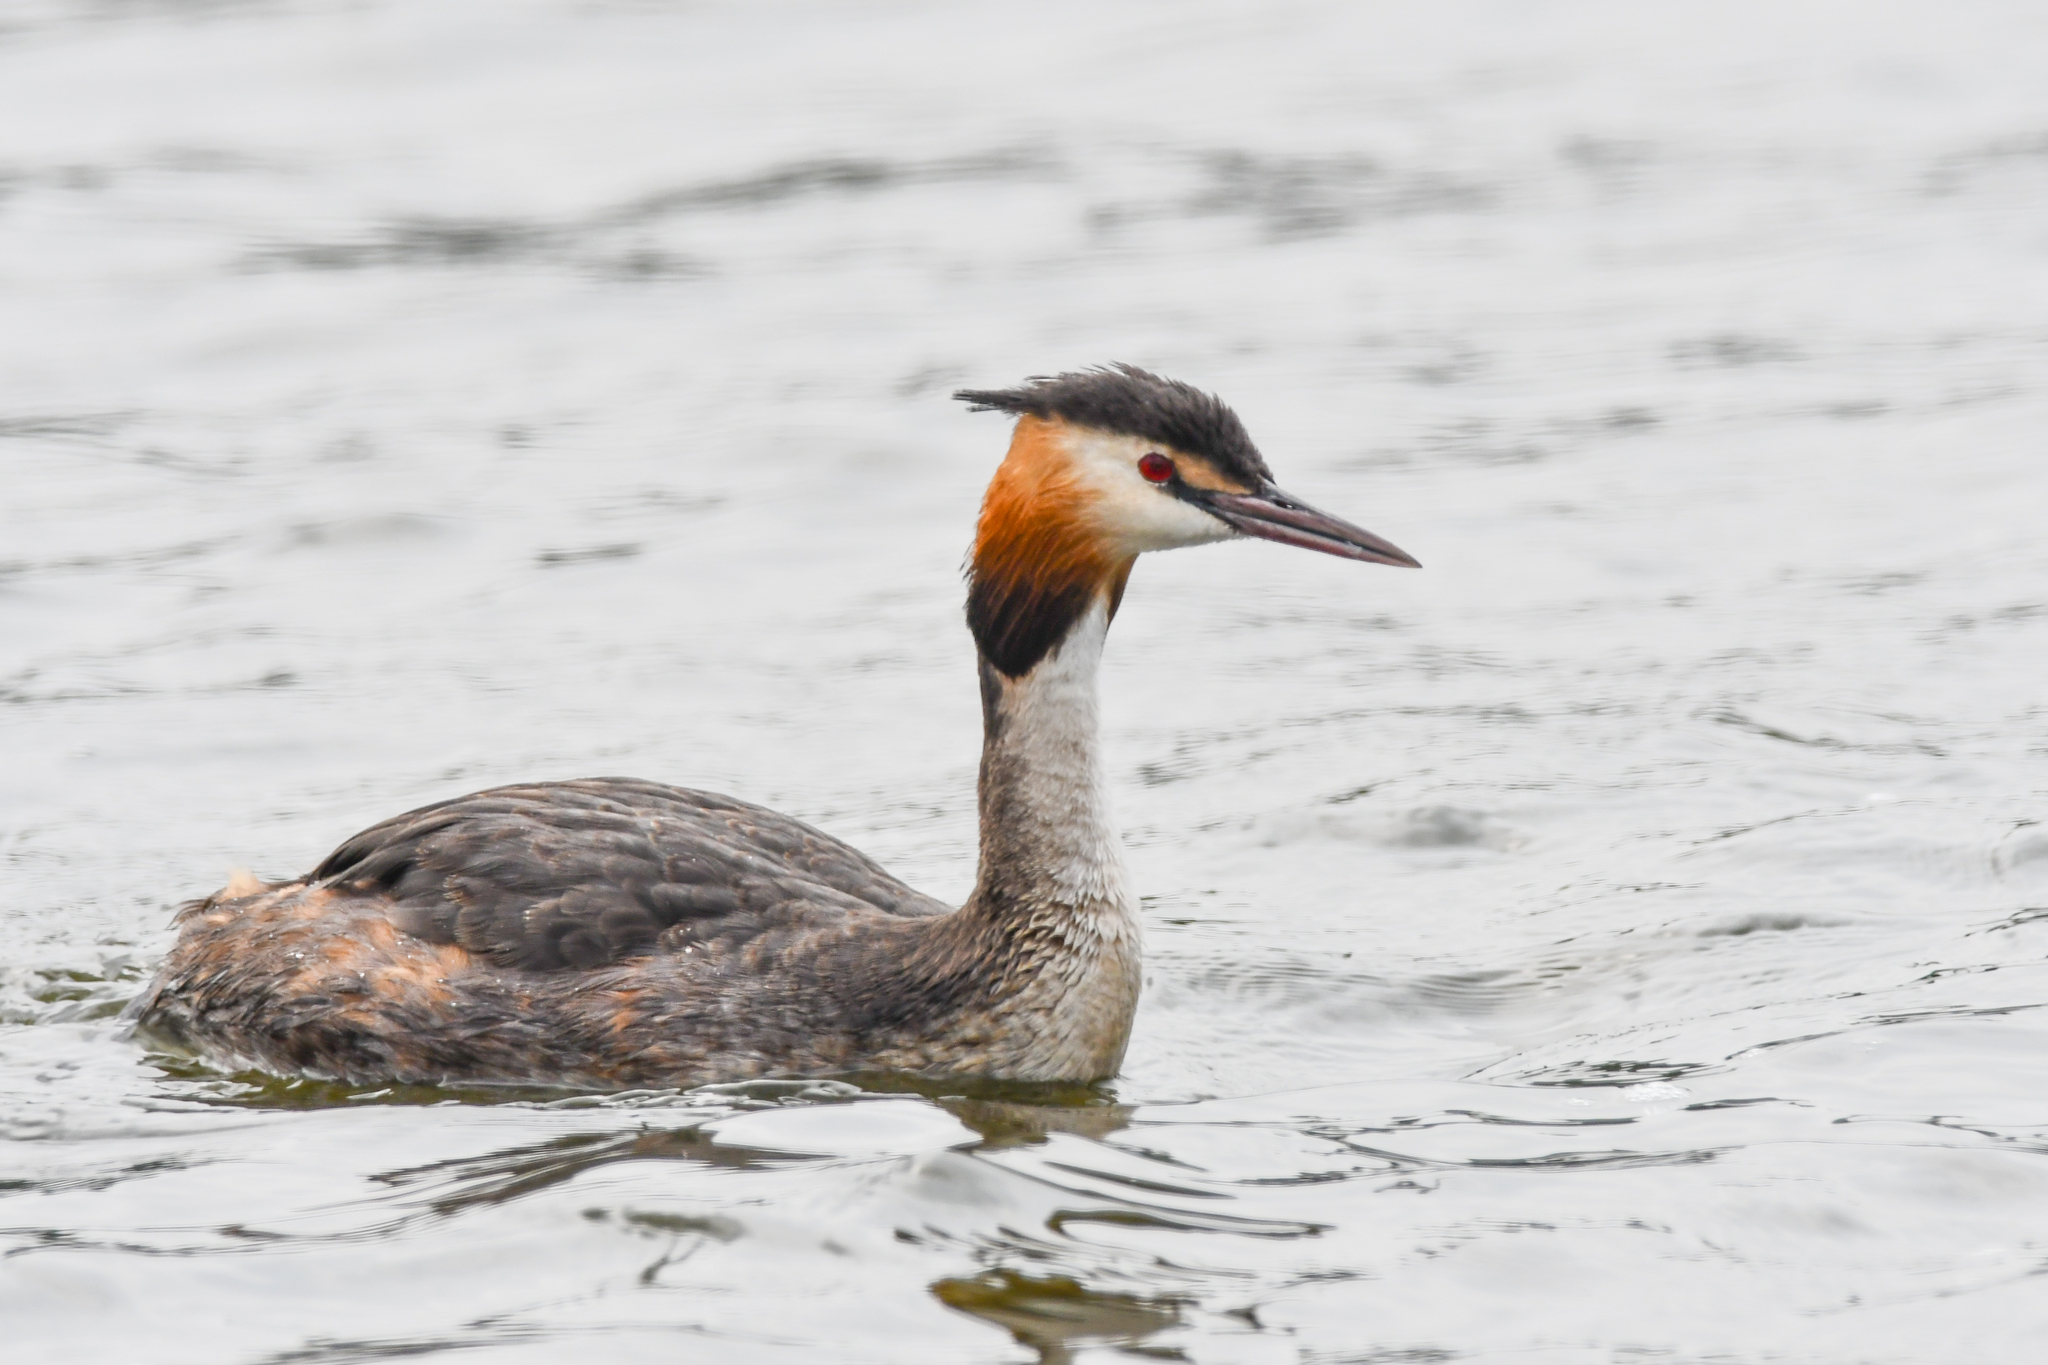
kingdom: Animalia
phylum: Chordata
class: Aves
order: Podicipediformes
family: Podicipedidae
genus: Podiceps
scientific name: Podiceps cristatus
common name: Great crested grebe
